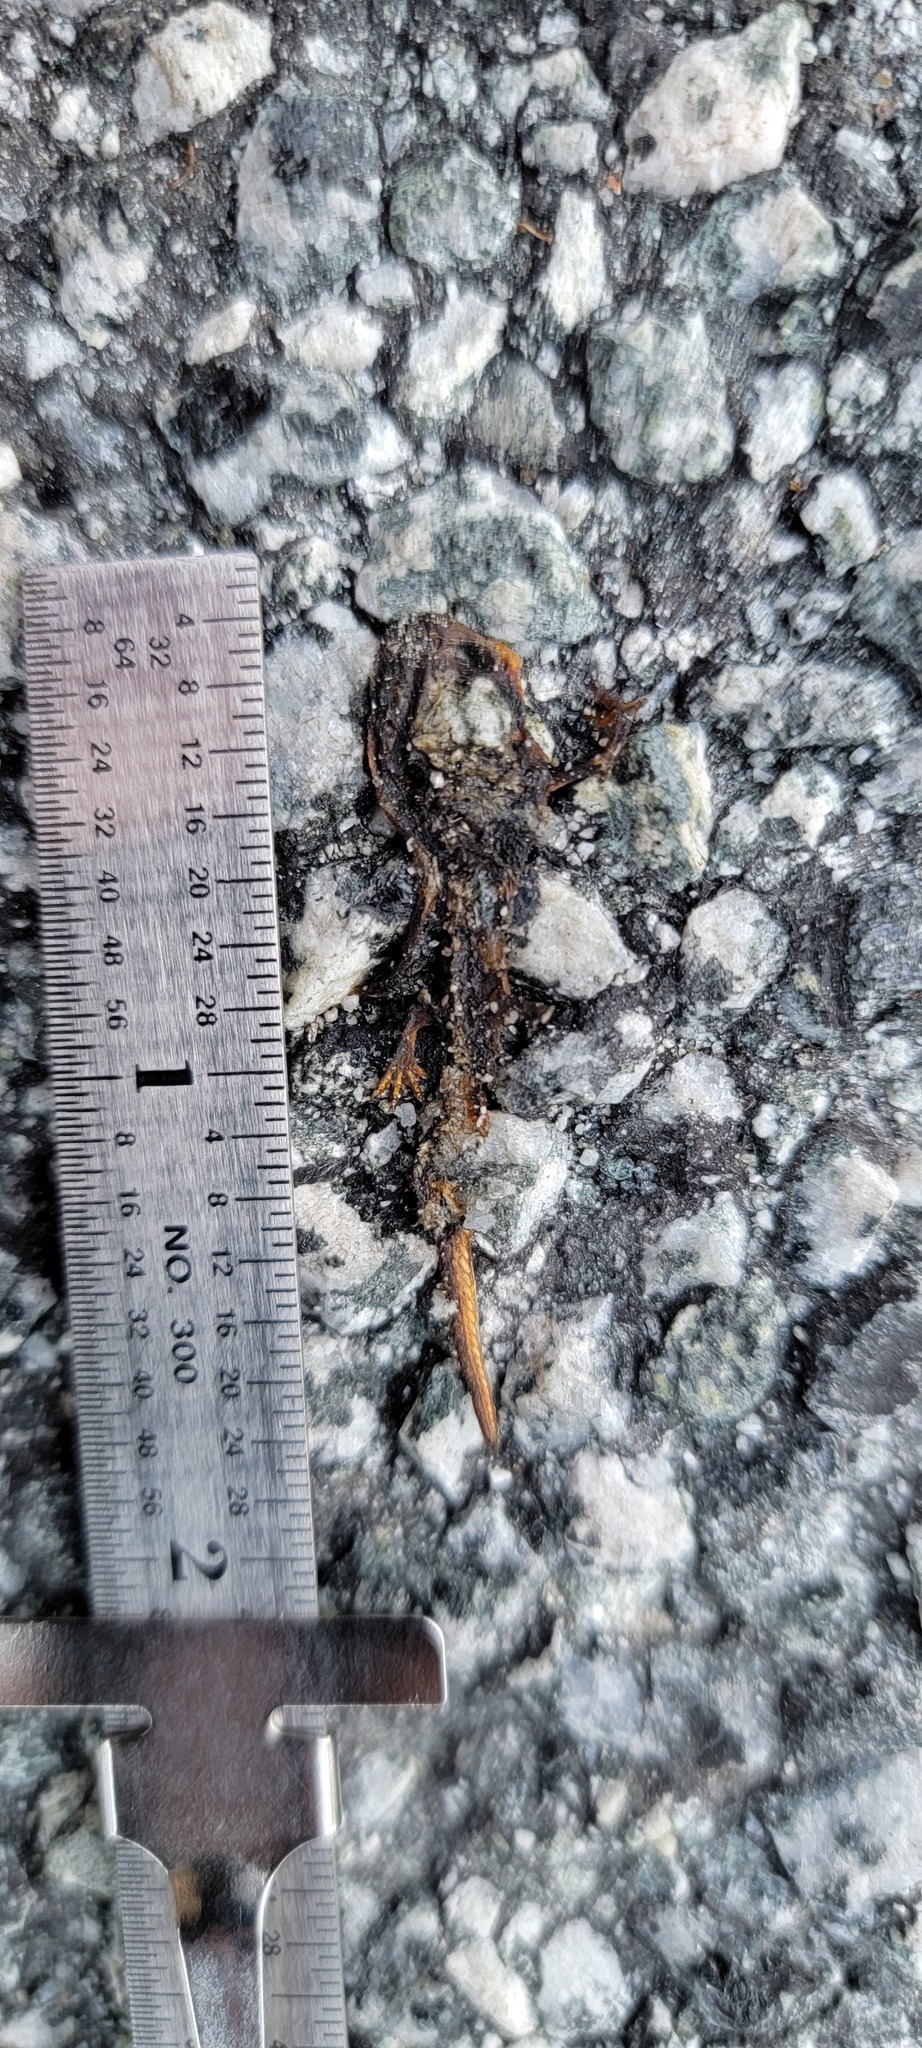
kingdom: Animalia
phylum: Chordata
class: Amphibia
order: Caudata
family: Salamandridae
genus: Taricha
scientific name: Taricha
